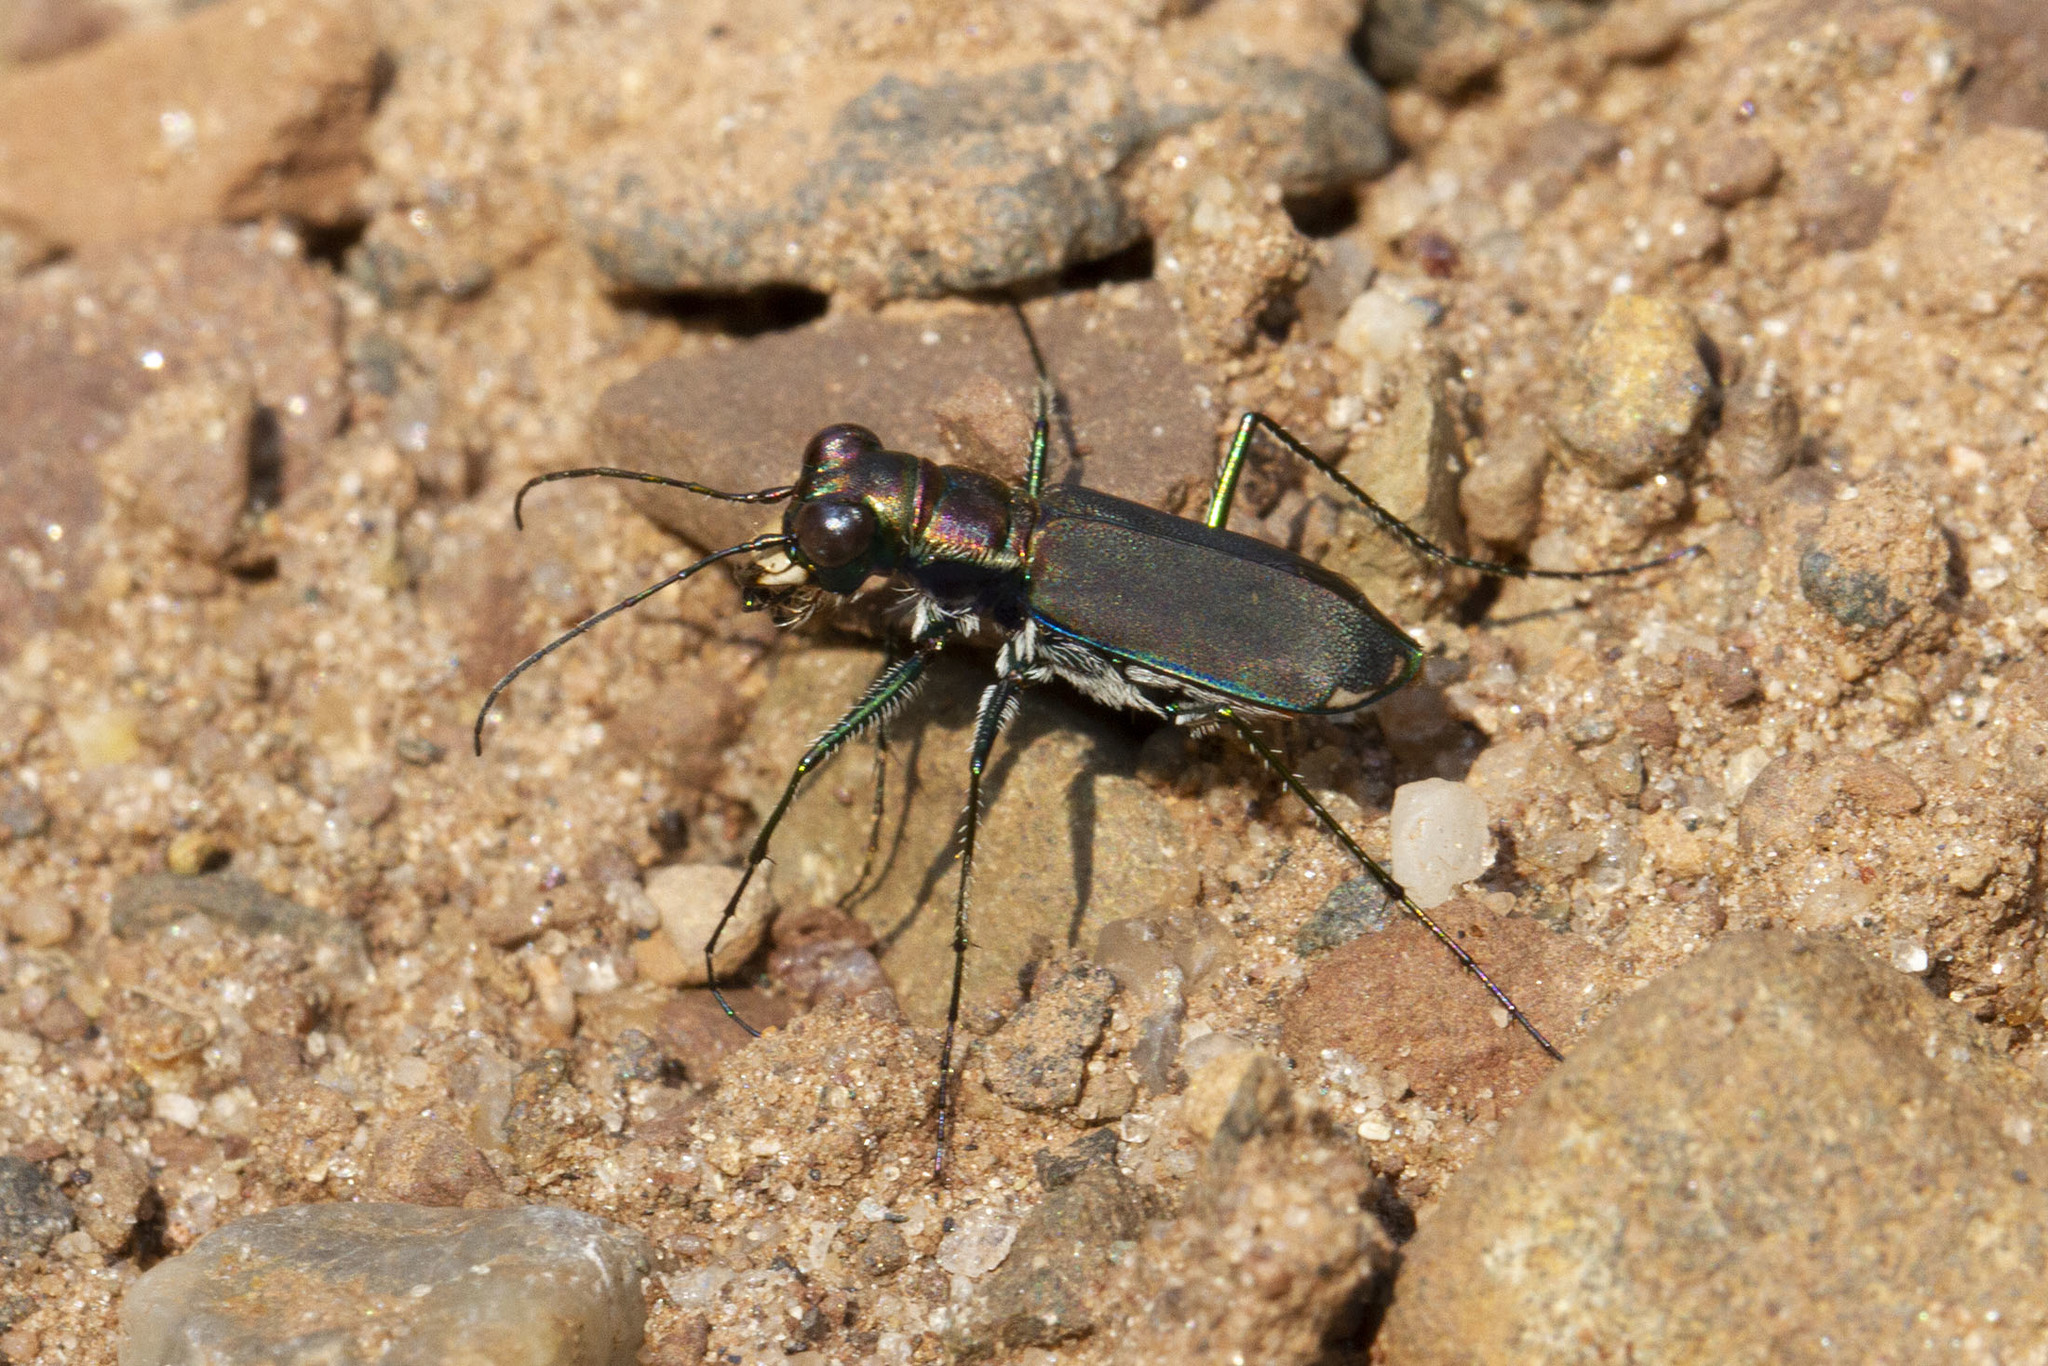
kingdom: Animalia
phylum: Arthropoda
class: Insecta
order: Coleoptera
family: Carabidae
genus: Cicindela
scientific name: Cicindela rufiventris
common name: Eastern red-bellied tiger beetle
